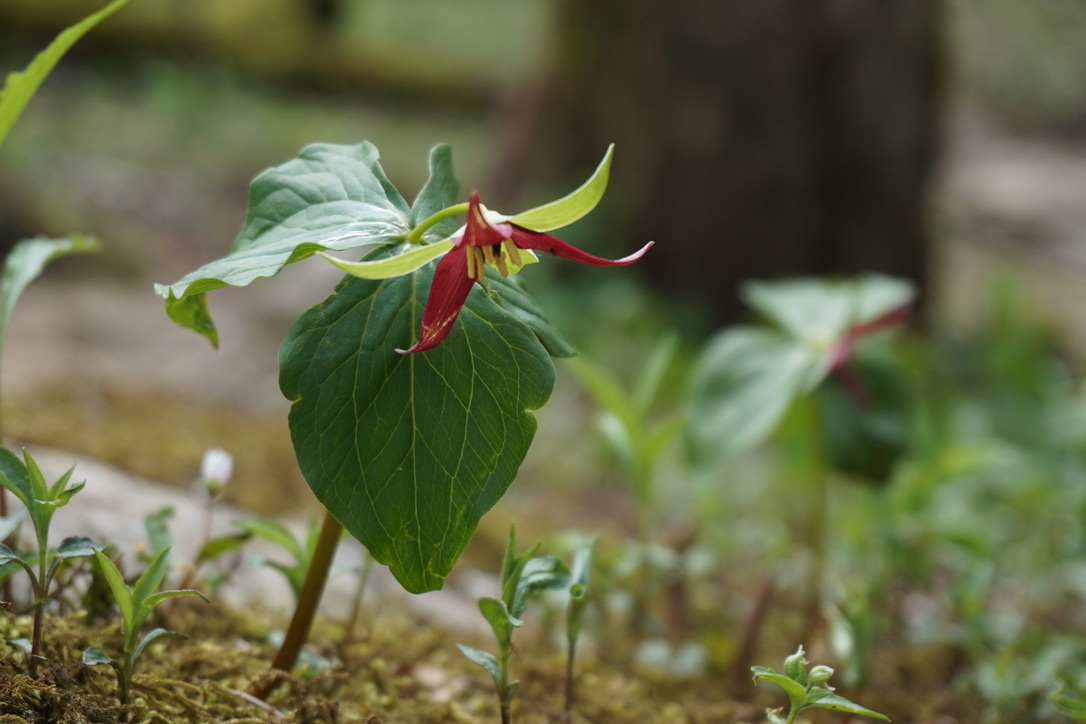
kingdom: Plantae
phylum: Tracheophyta
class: Liliopsida
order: Liliales
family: Melanthiaceae
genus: Trillium
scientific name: Trillium erectum
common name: Purple trillium
